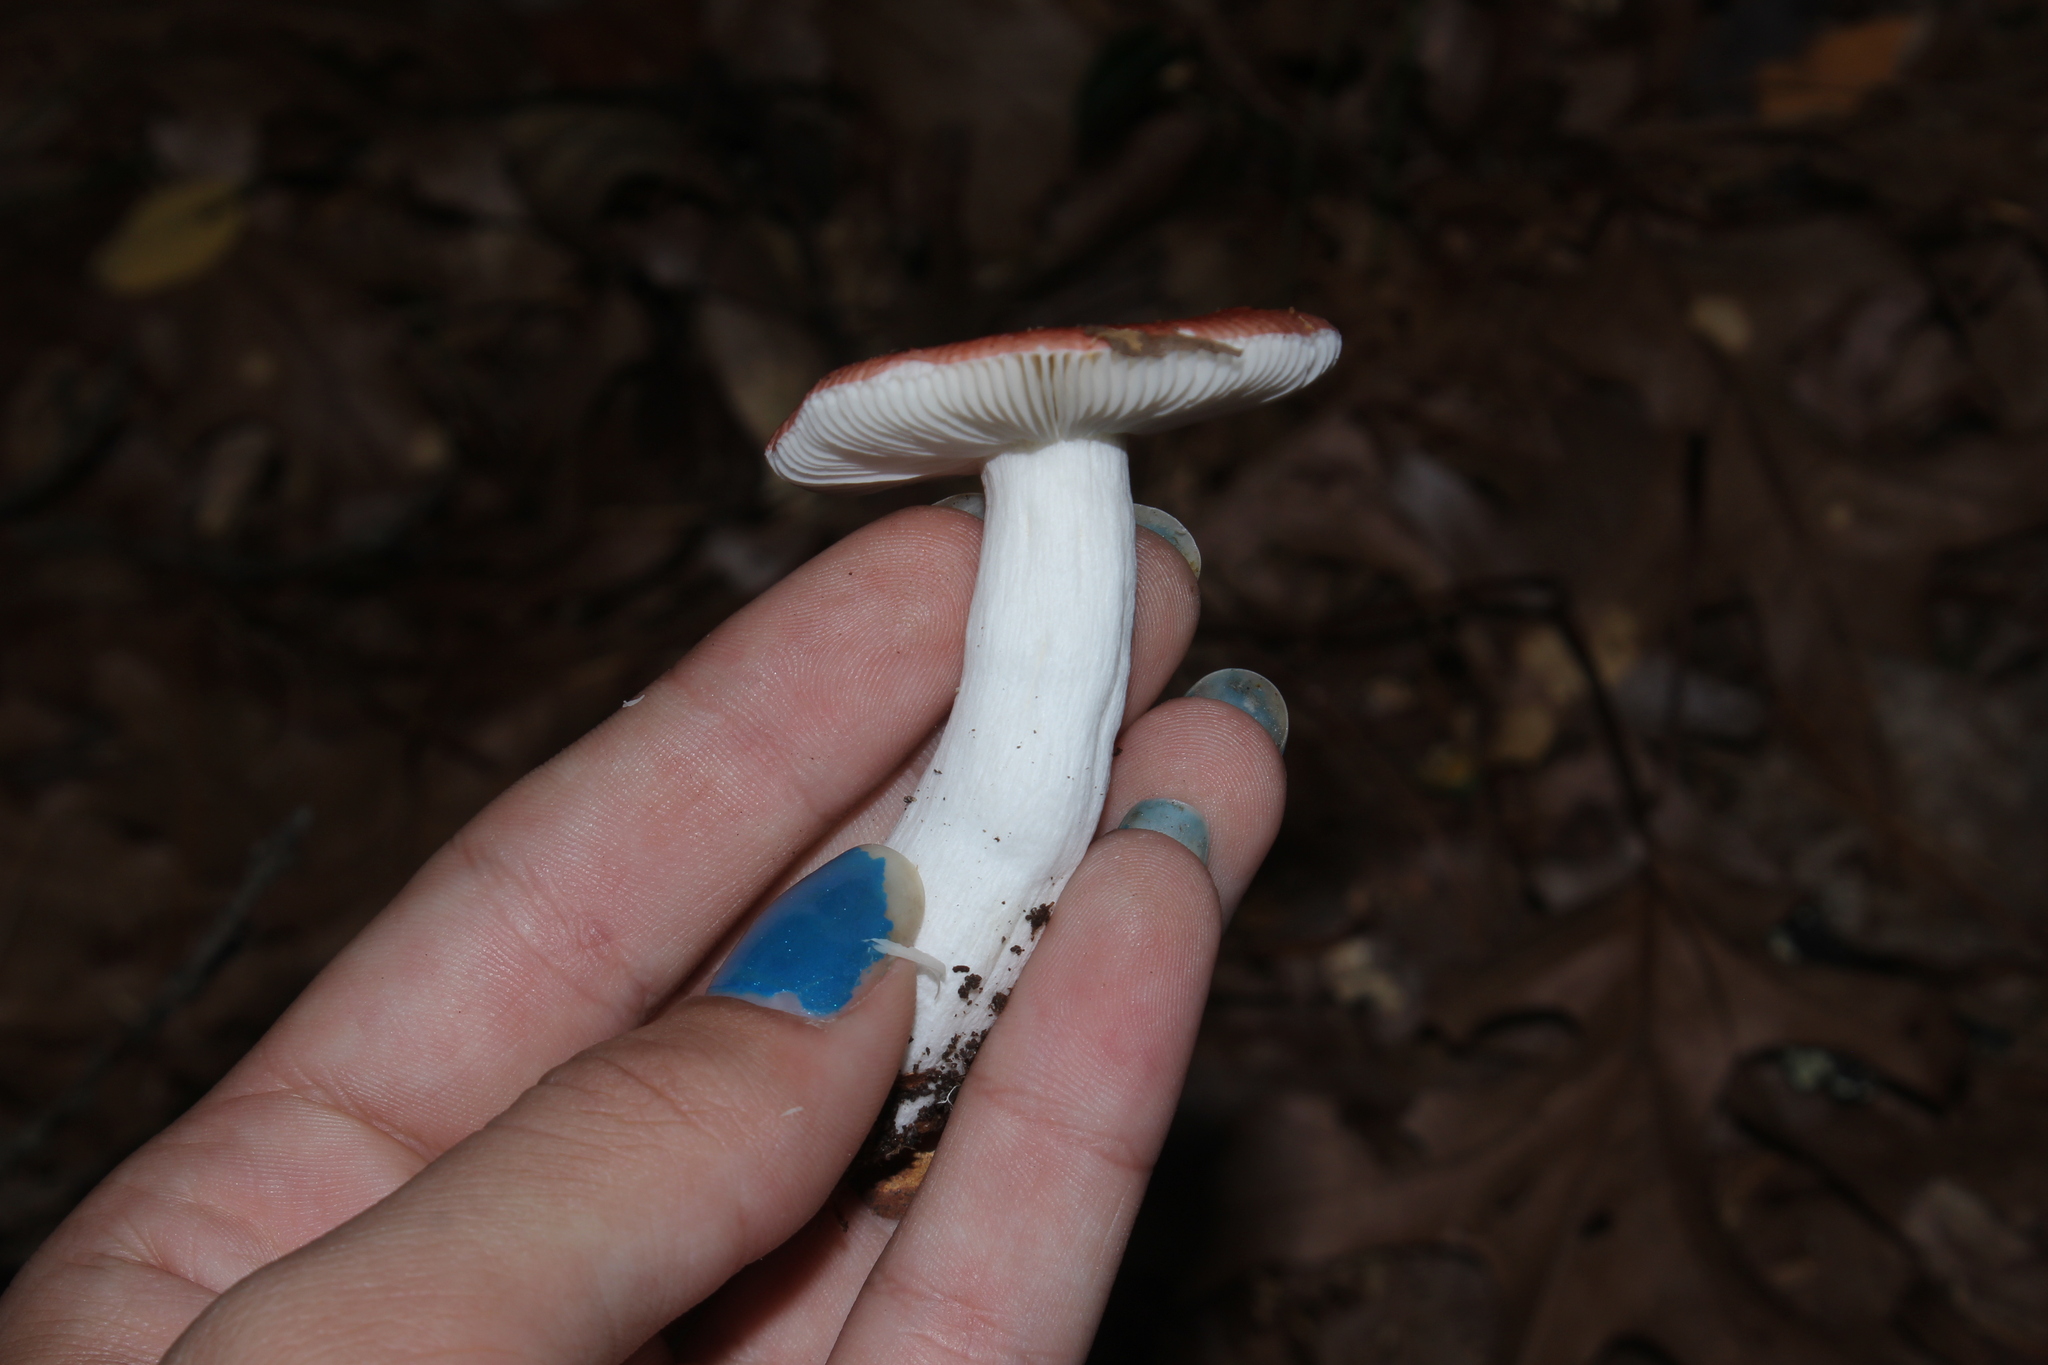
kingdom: Fungi
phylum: Basidiomycota
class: Agaricomycetes
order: Russulales
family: Russulaceae
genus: Russula
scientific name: Russula
